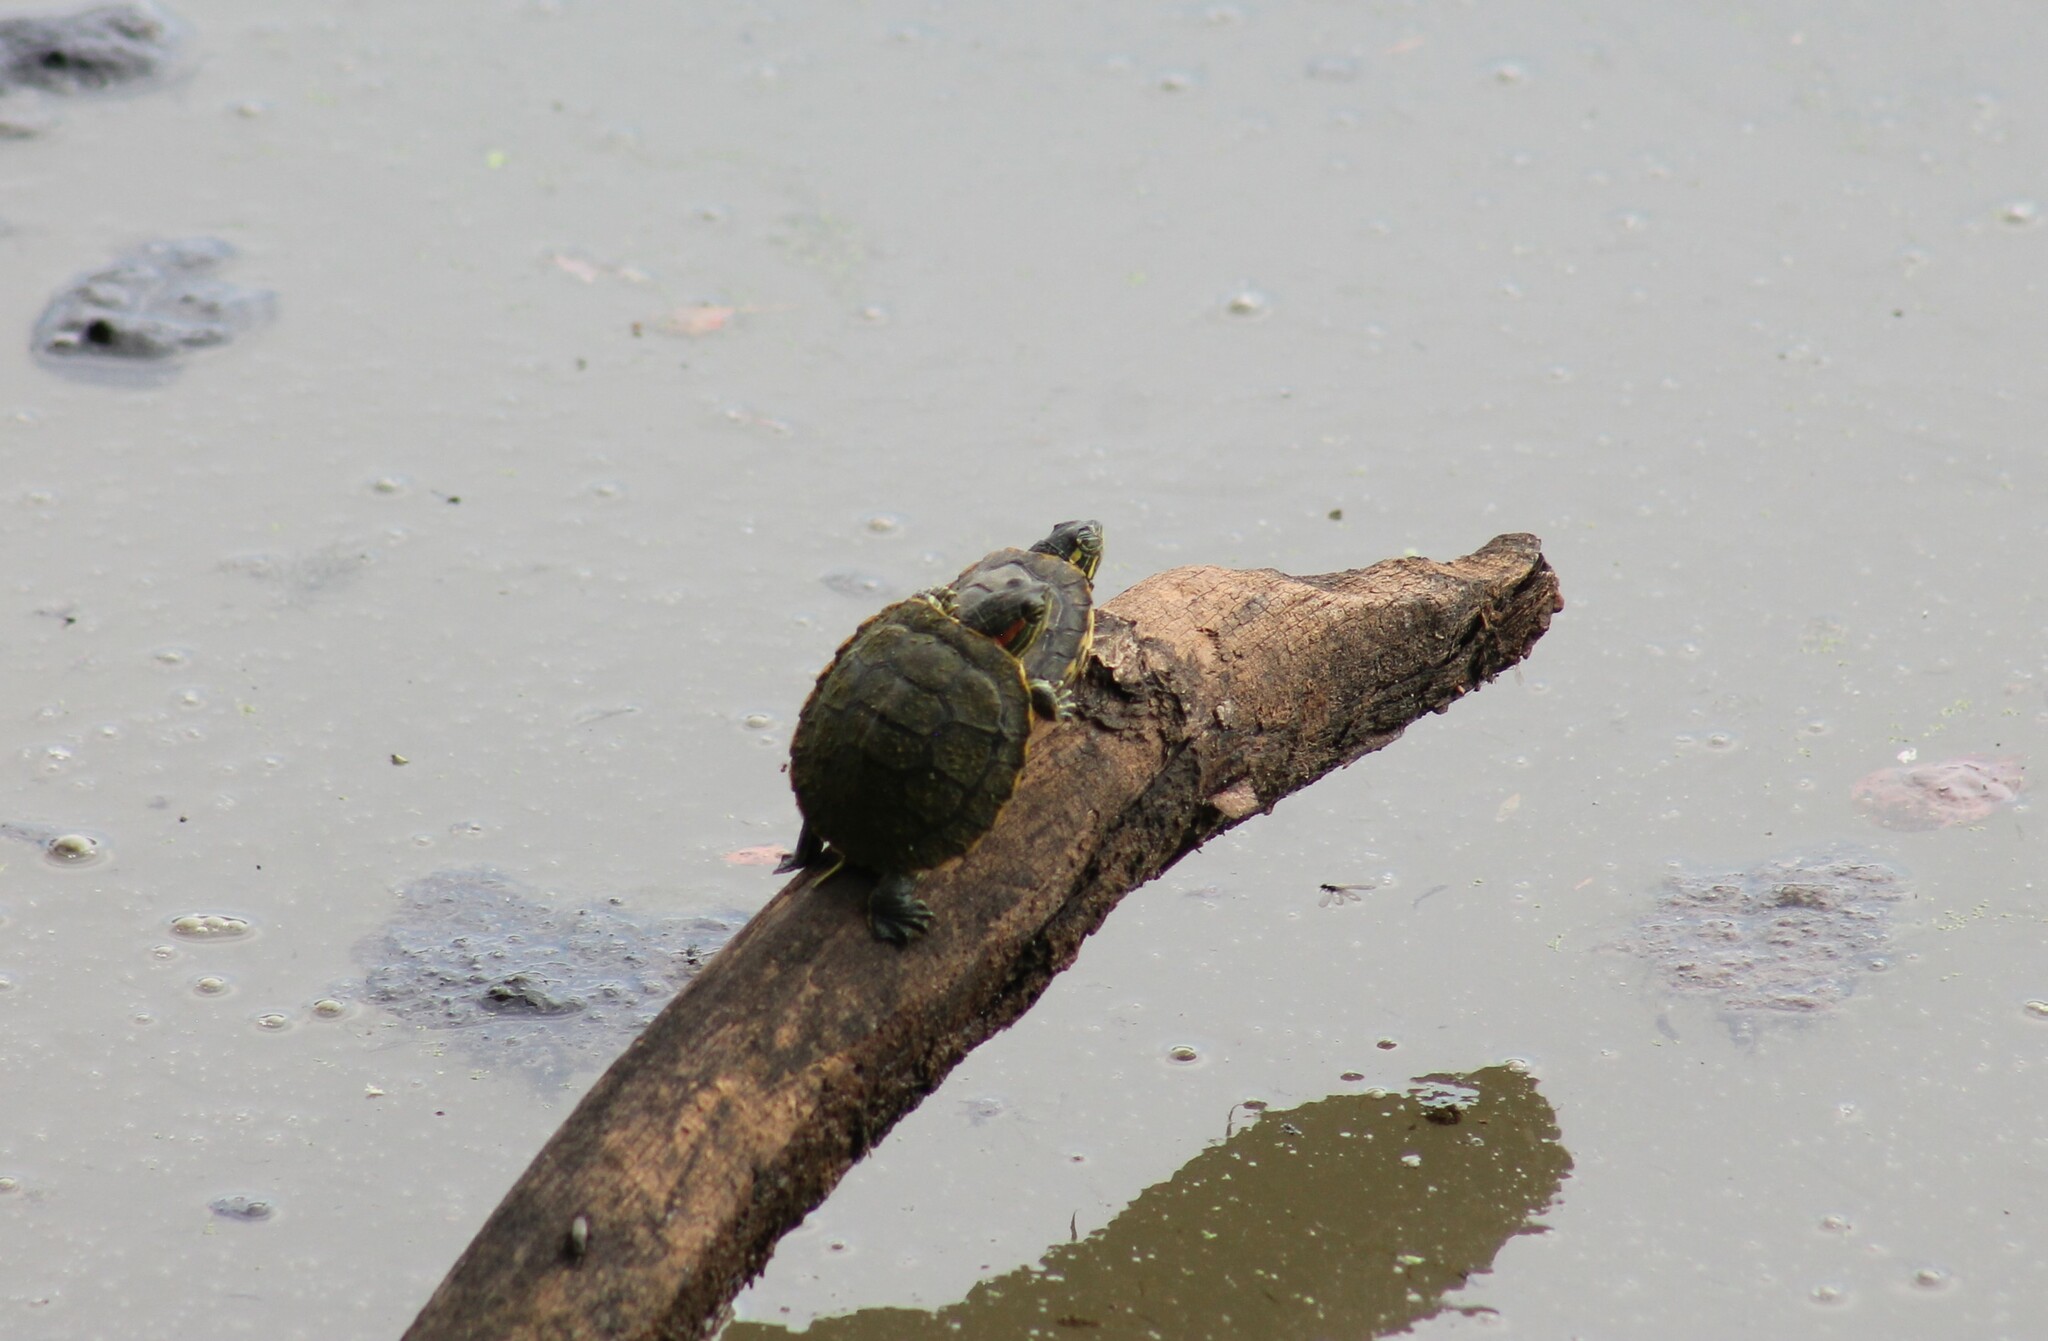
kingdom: Animalia
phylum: Chordata
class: Testudines
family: Emydidae
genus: Trachemys
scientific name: Trachemys scripta
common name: Slider
